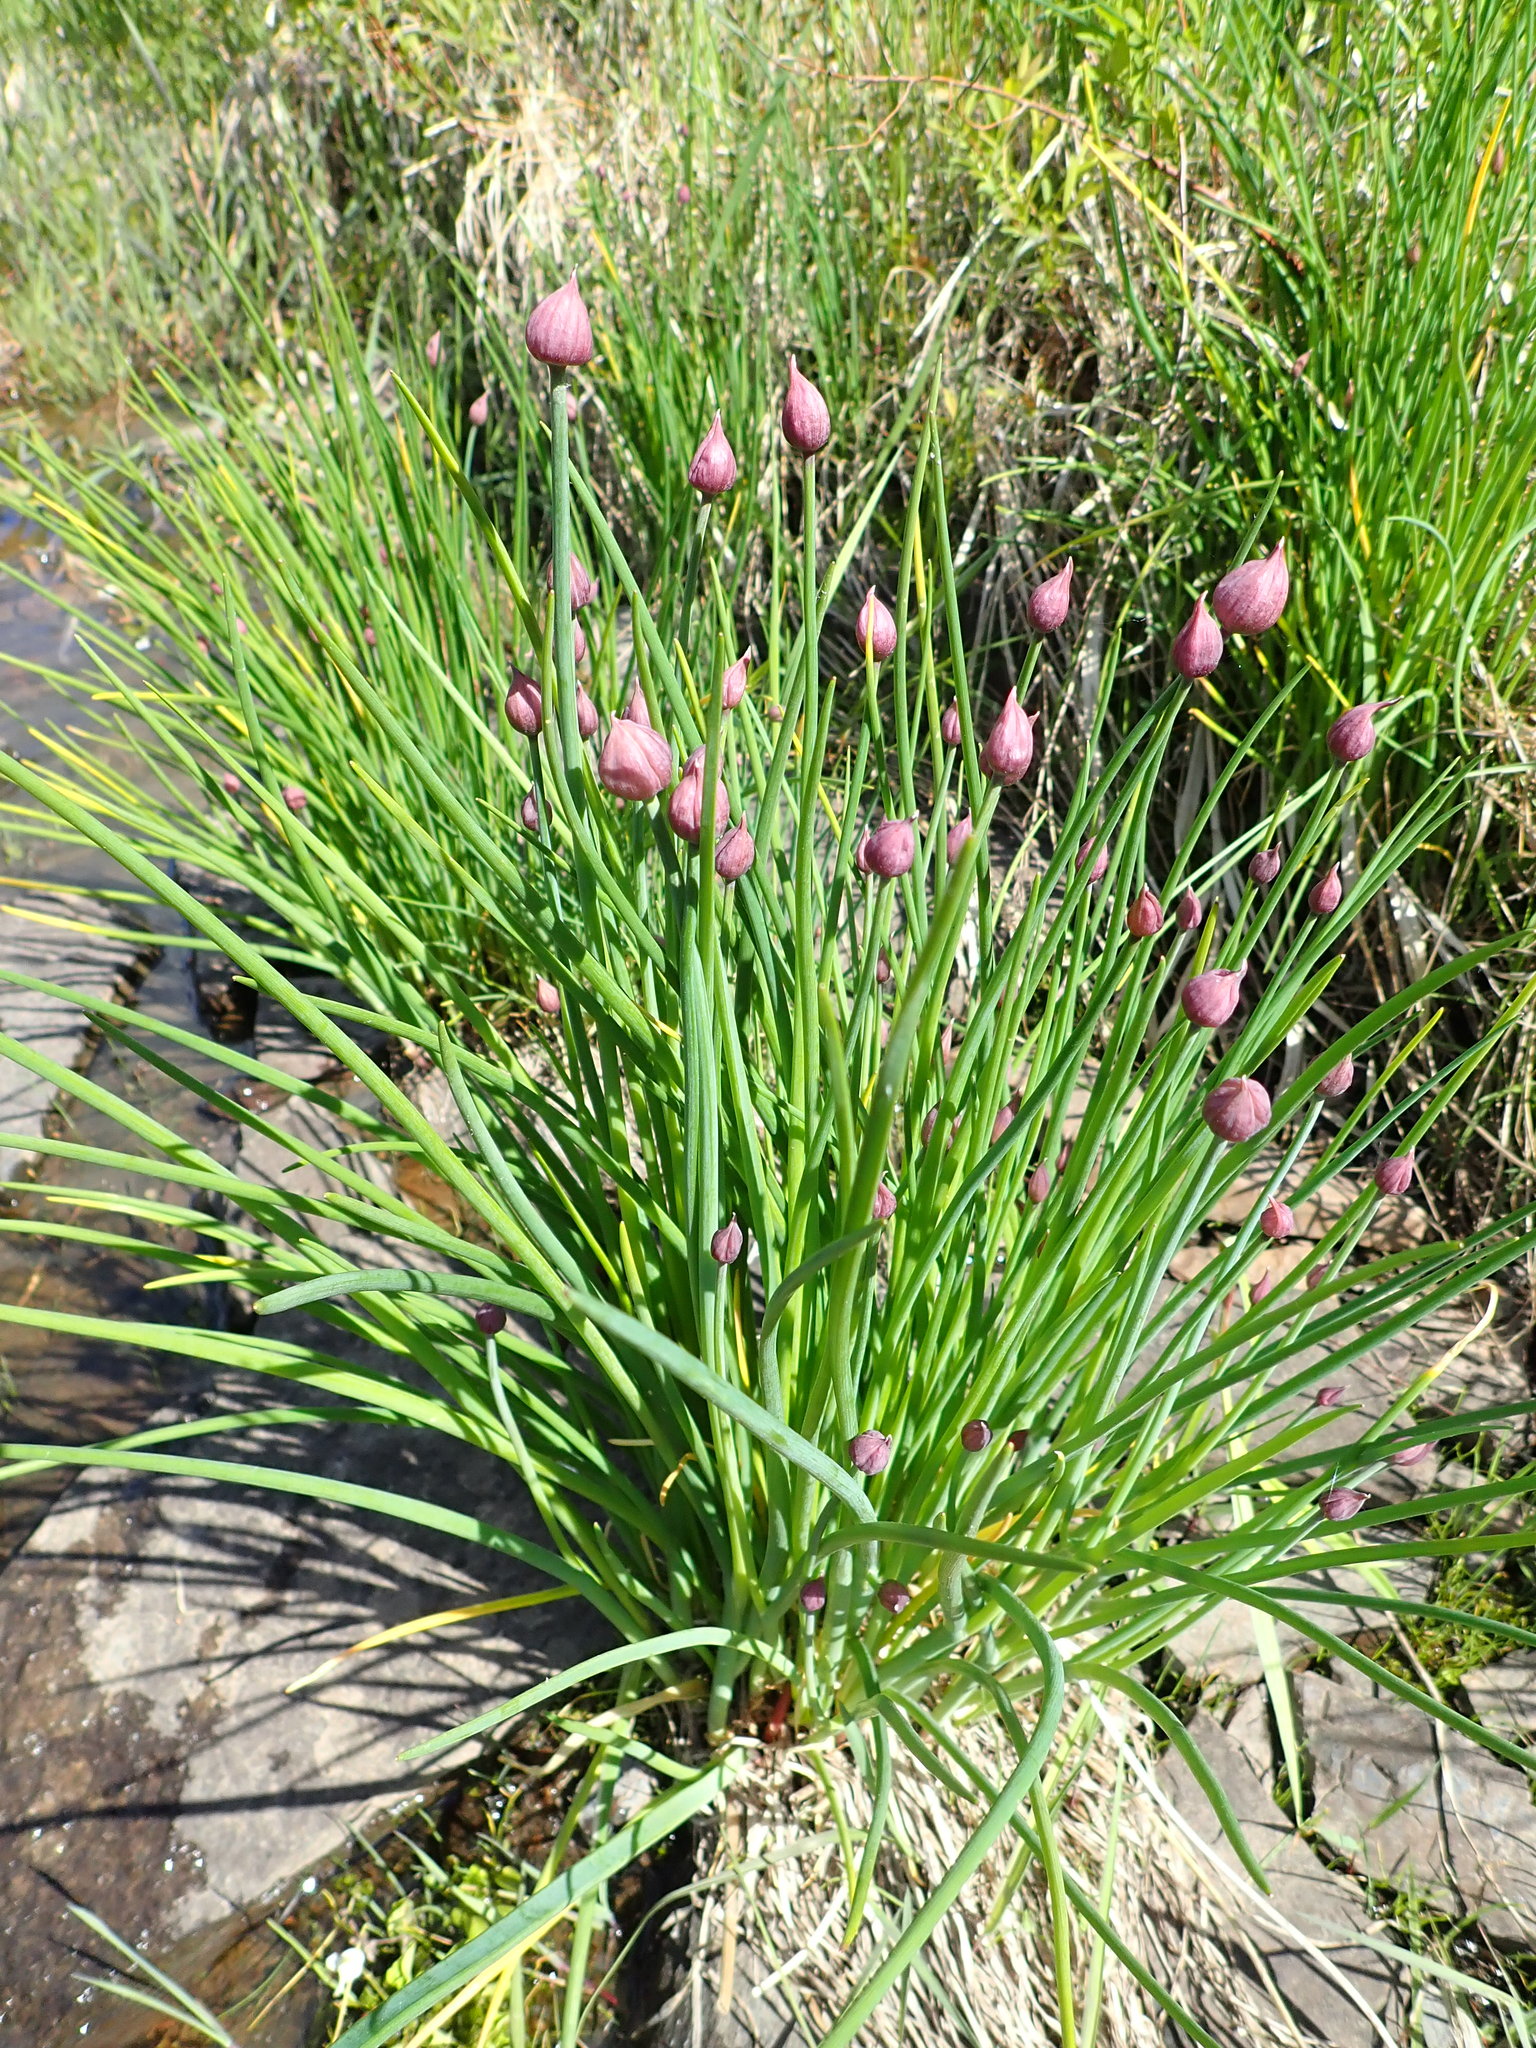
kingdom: Plantae
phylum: Tracheophyta
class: Liliopsida
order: Asparagales
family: Amaryllidaceae
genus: Allium
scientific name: Allium schoenoprasum
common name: Chives
